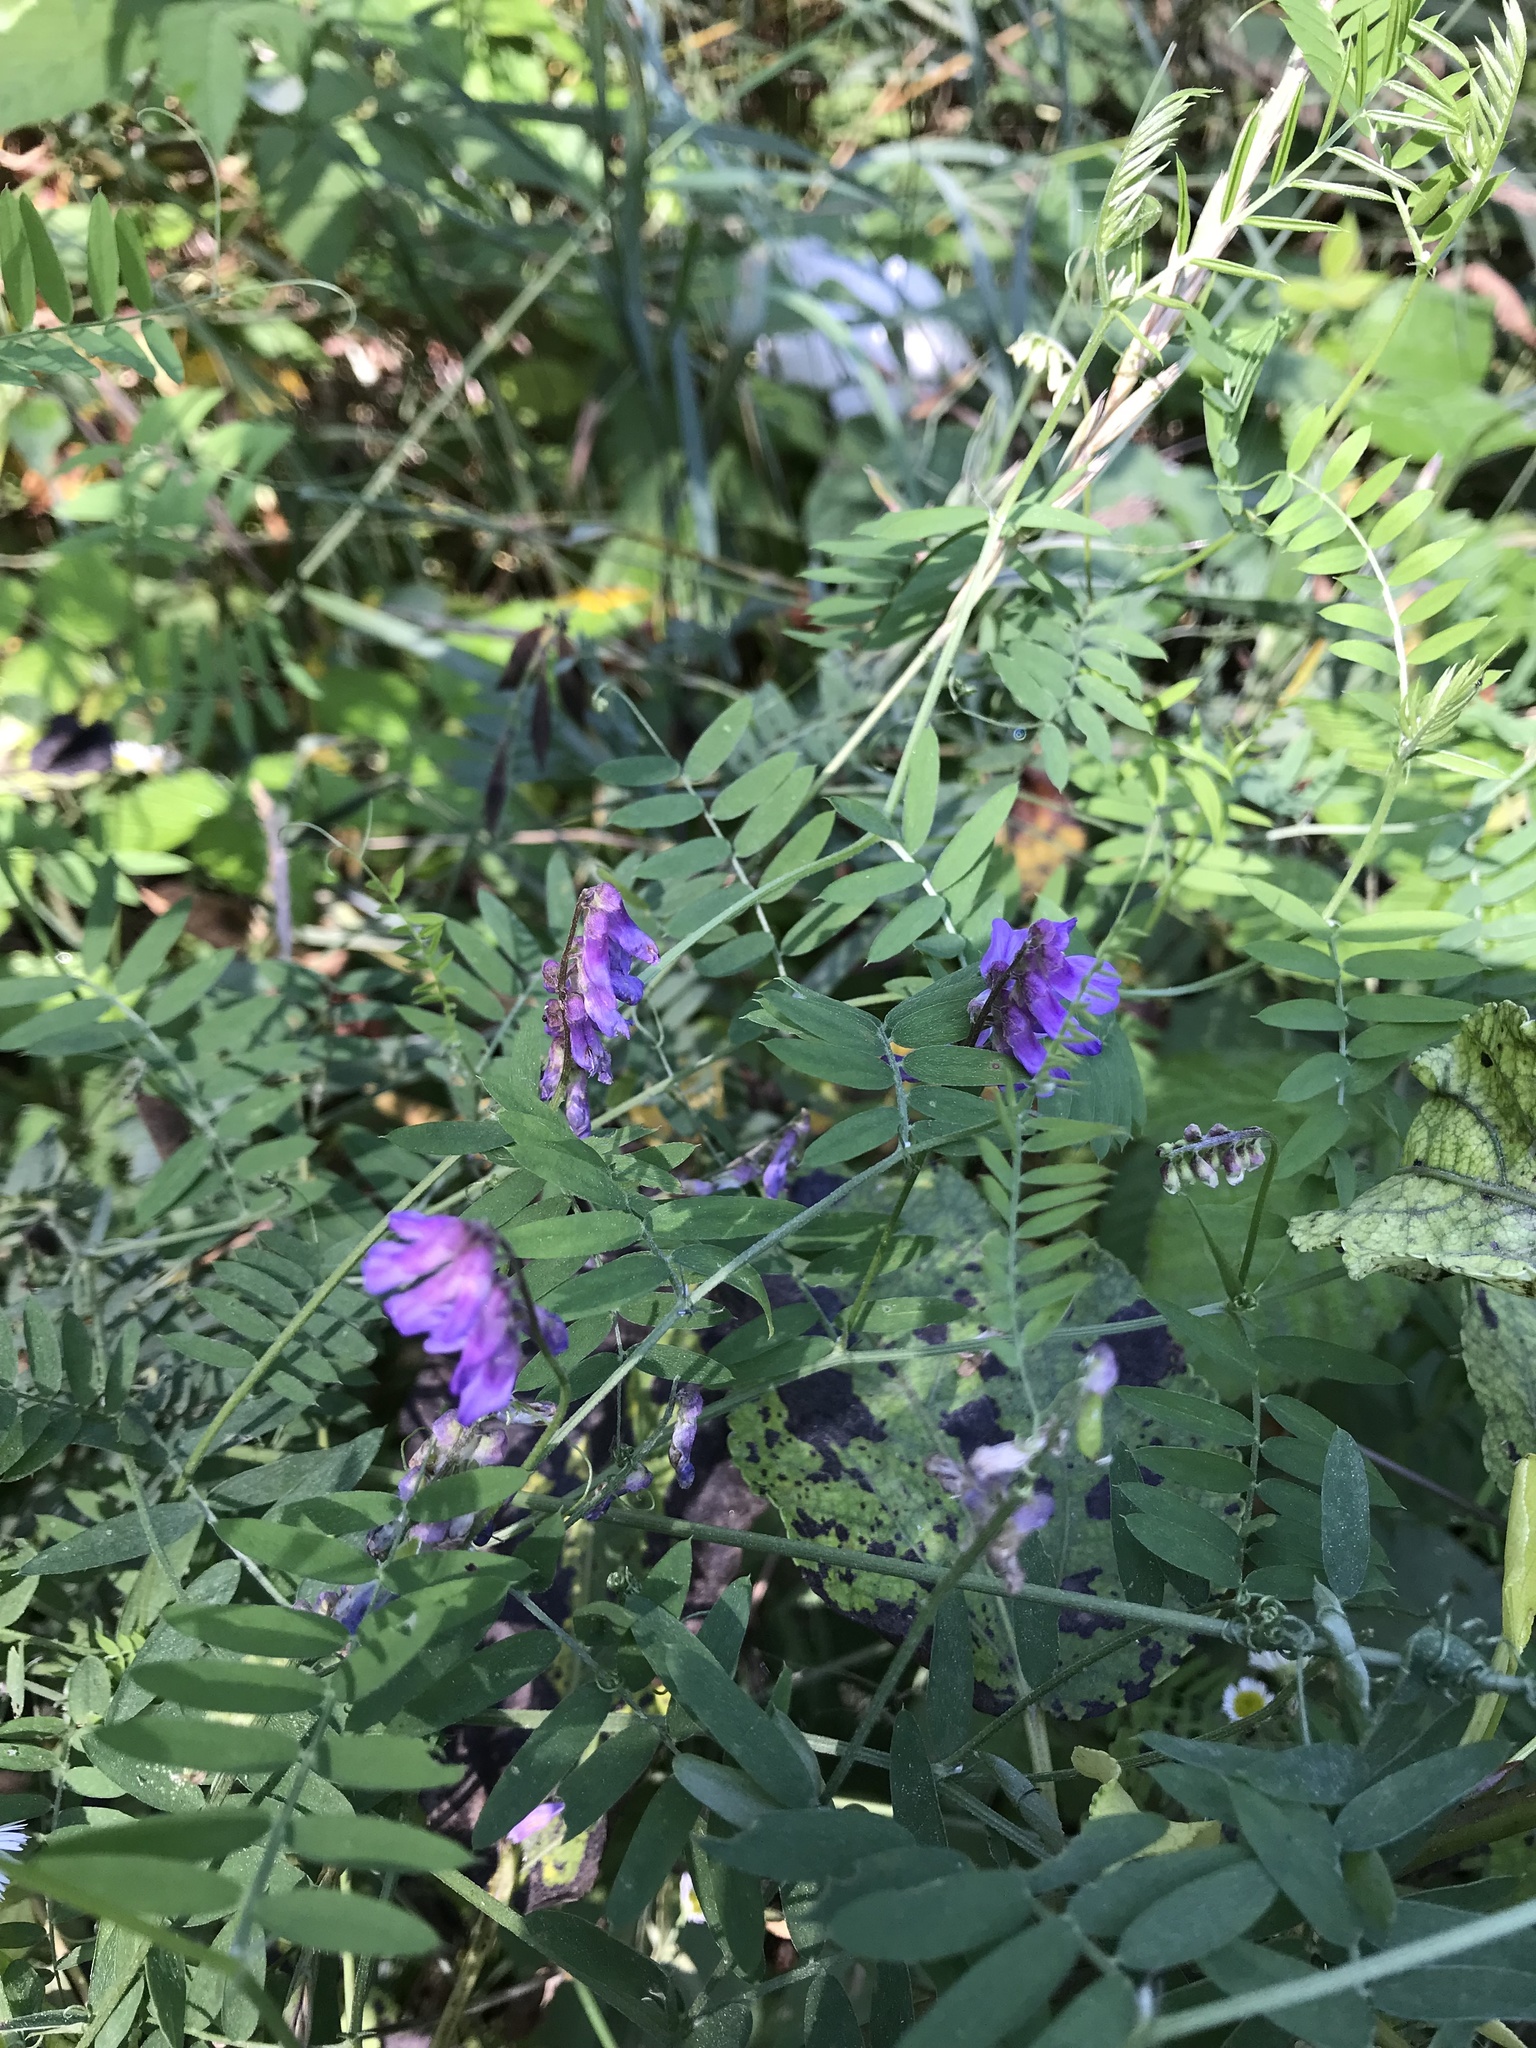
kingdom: Plantae
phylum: Tracheophyta
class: Magnoliopsida
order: Fabales
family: Fabaceae
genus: Vicia
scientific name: Vicia cracca
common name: Bird vetch
